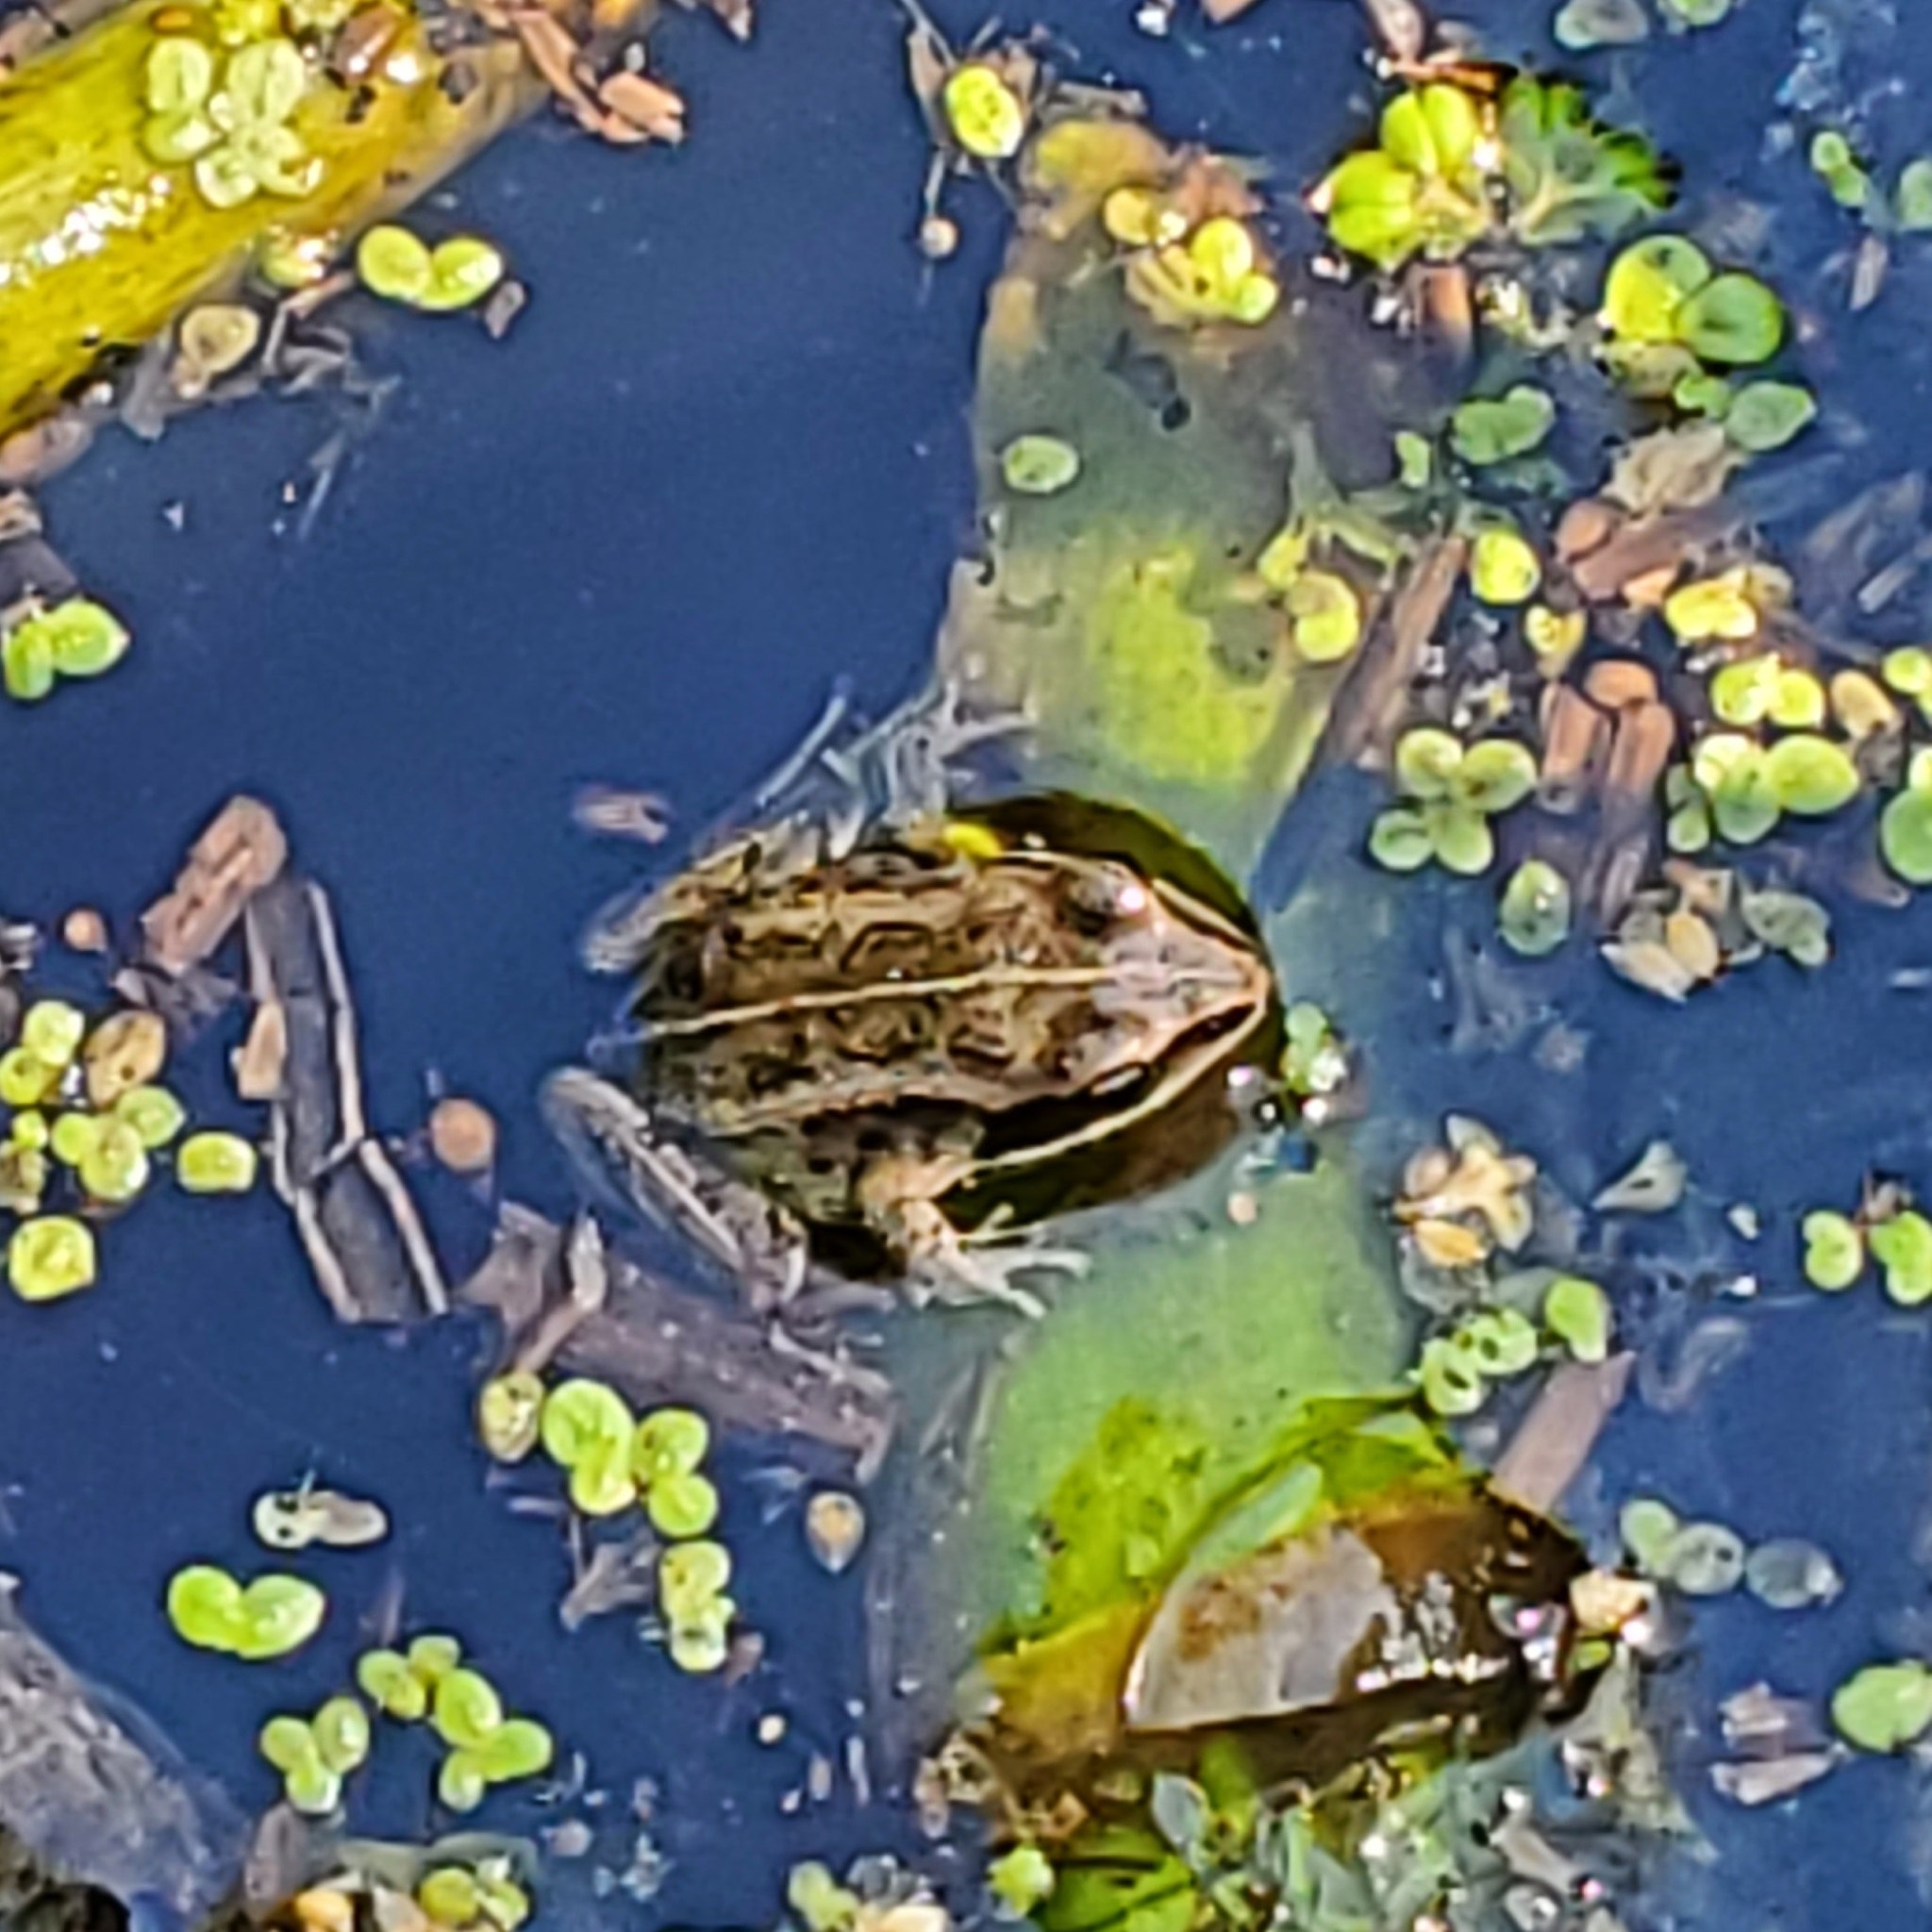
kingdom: Animalia
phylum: Chordata
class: Amphibia
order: Anura
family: Ranidae
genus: Lithobates
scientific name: Lithobates sylvaticus
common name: Wood frog
